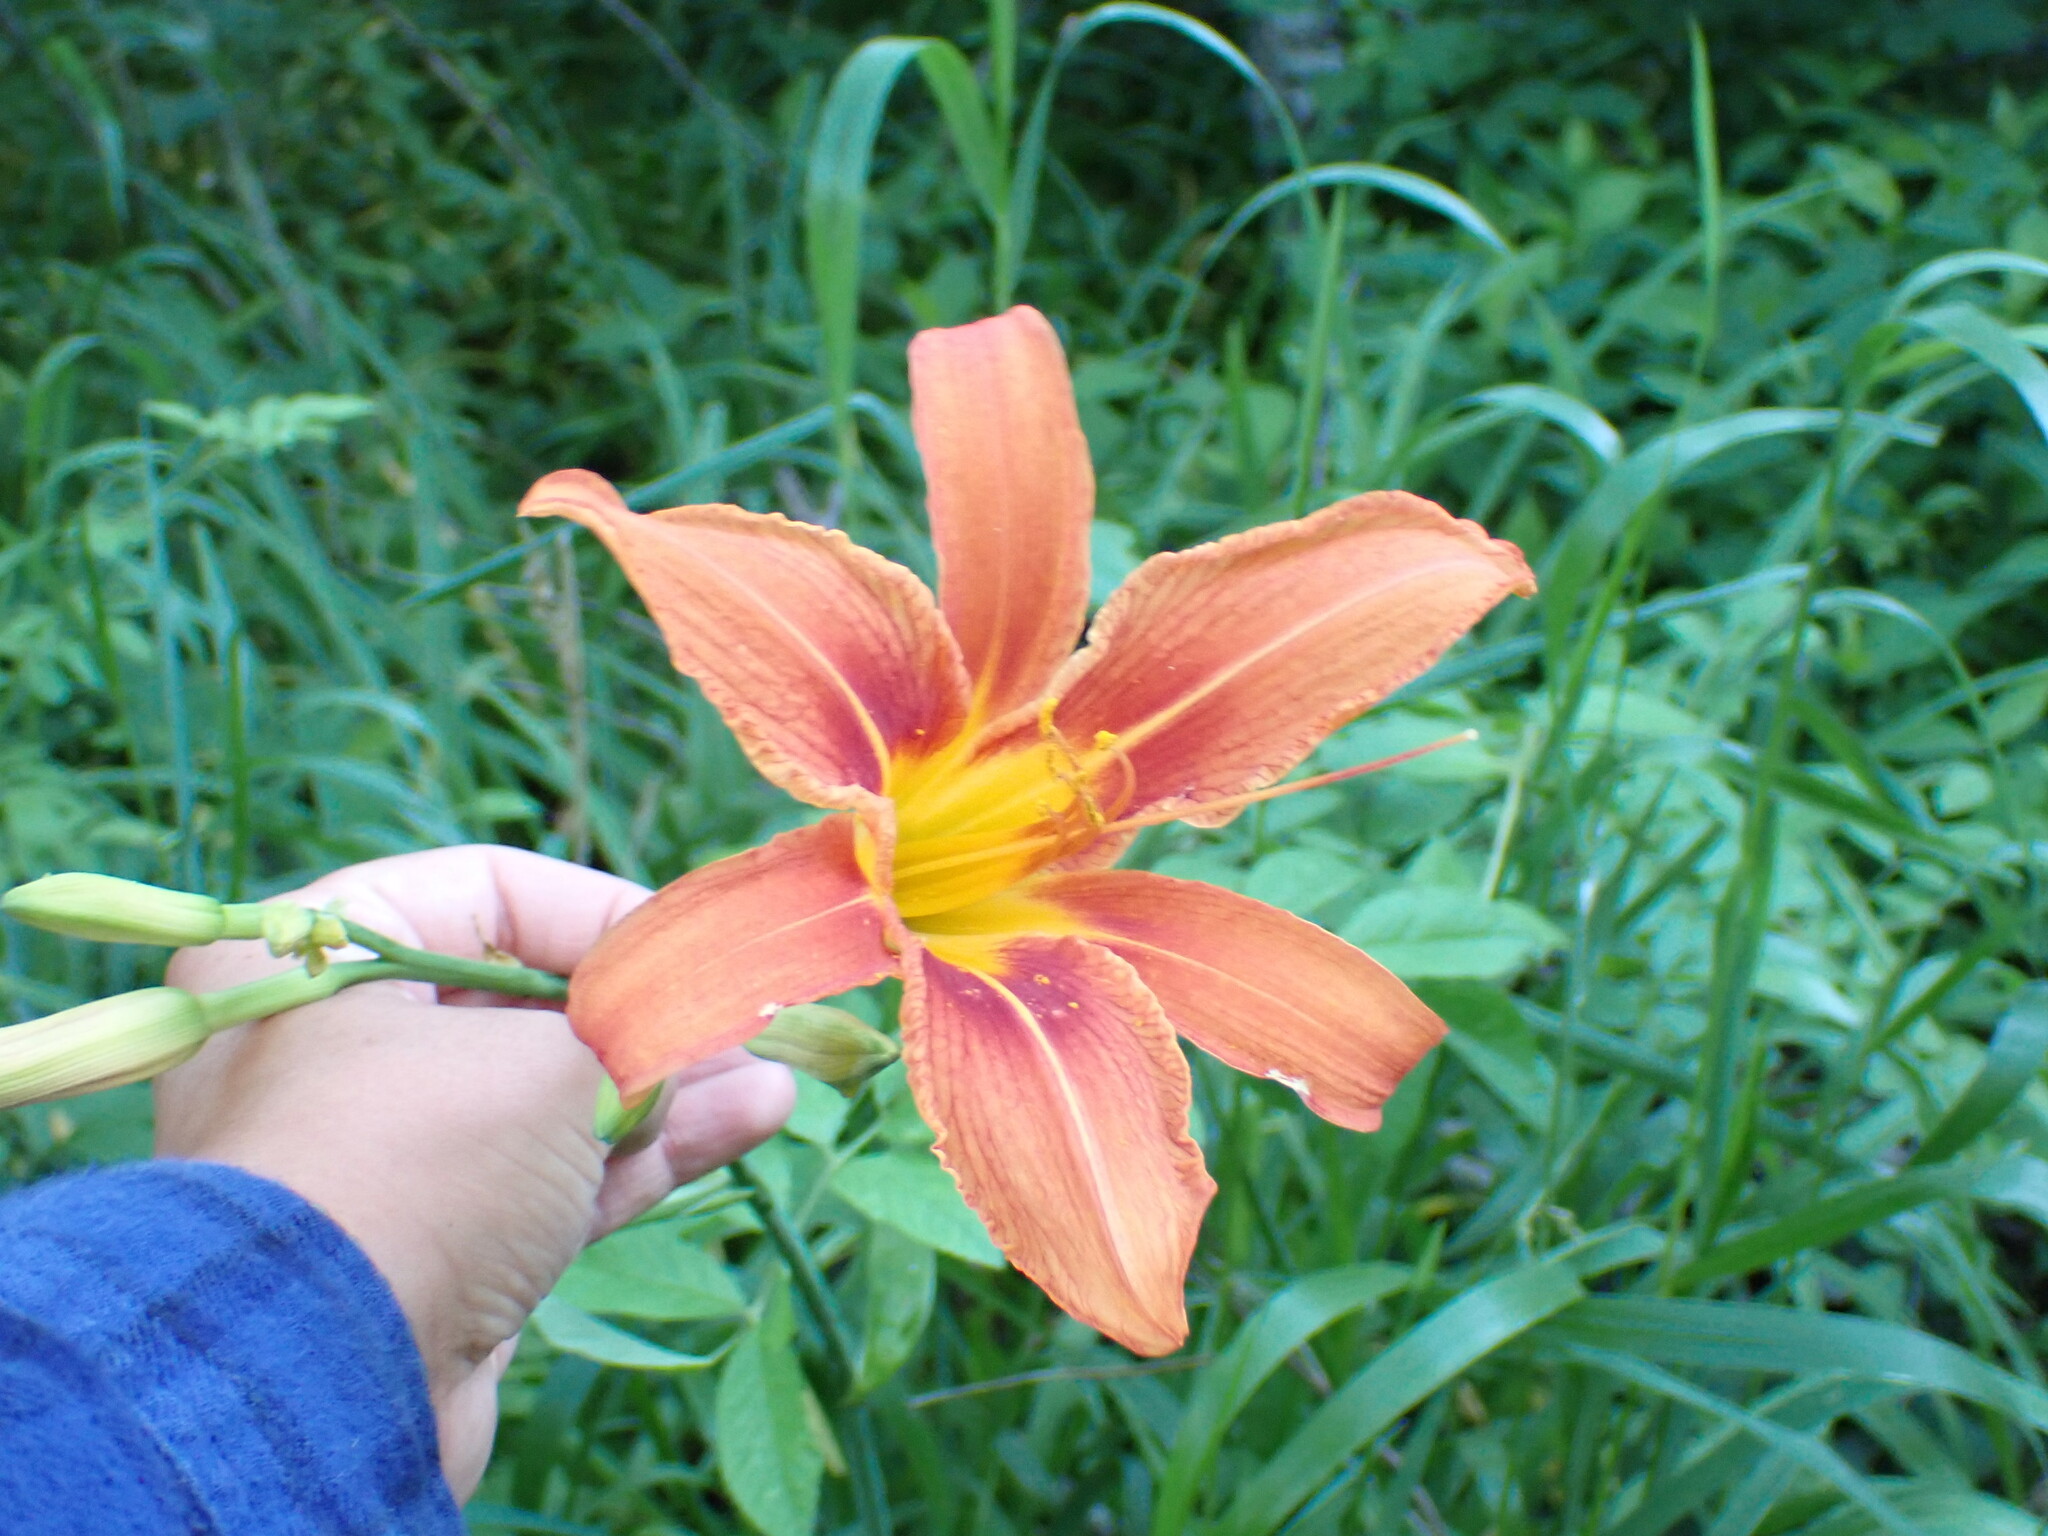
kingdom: Plantae
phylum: Tracheophyta
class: Liliopsida
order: Asparagales
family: Asphodelaceae
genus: Hemerocallis
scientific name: Hemerocallis fulva
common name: Orange day-lily
